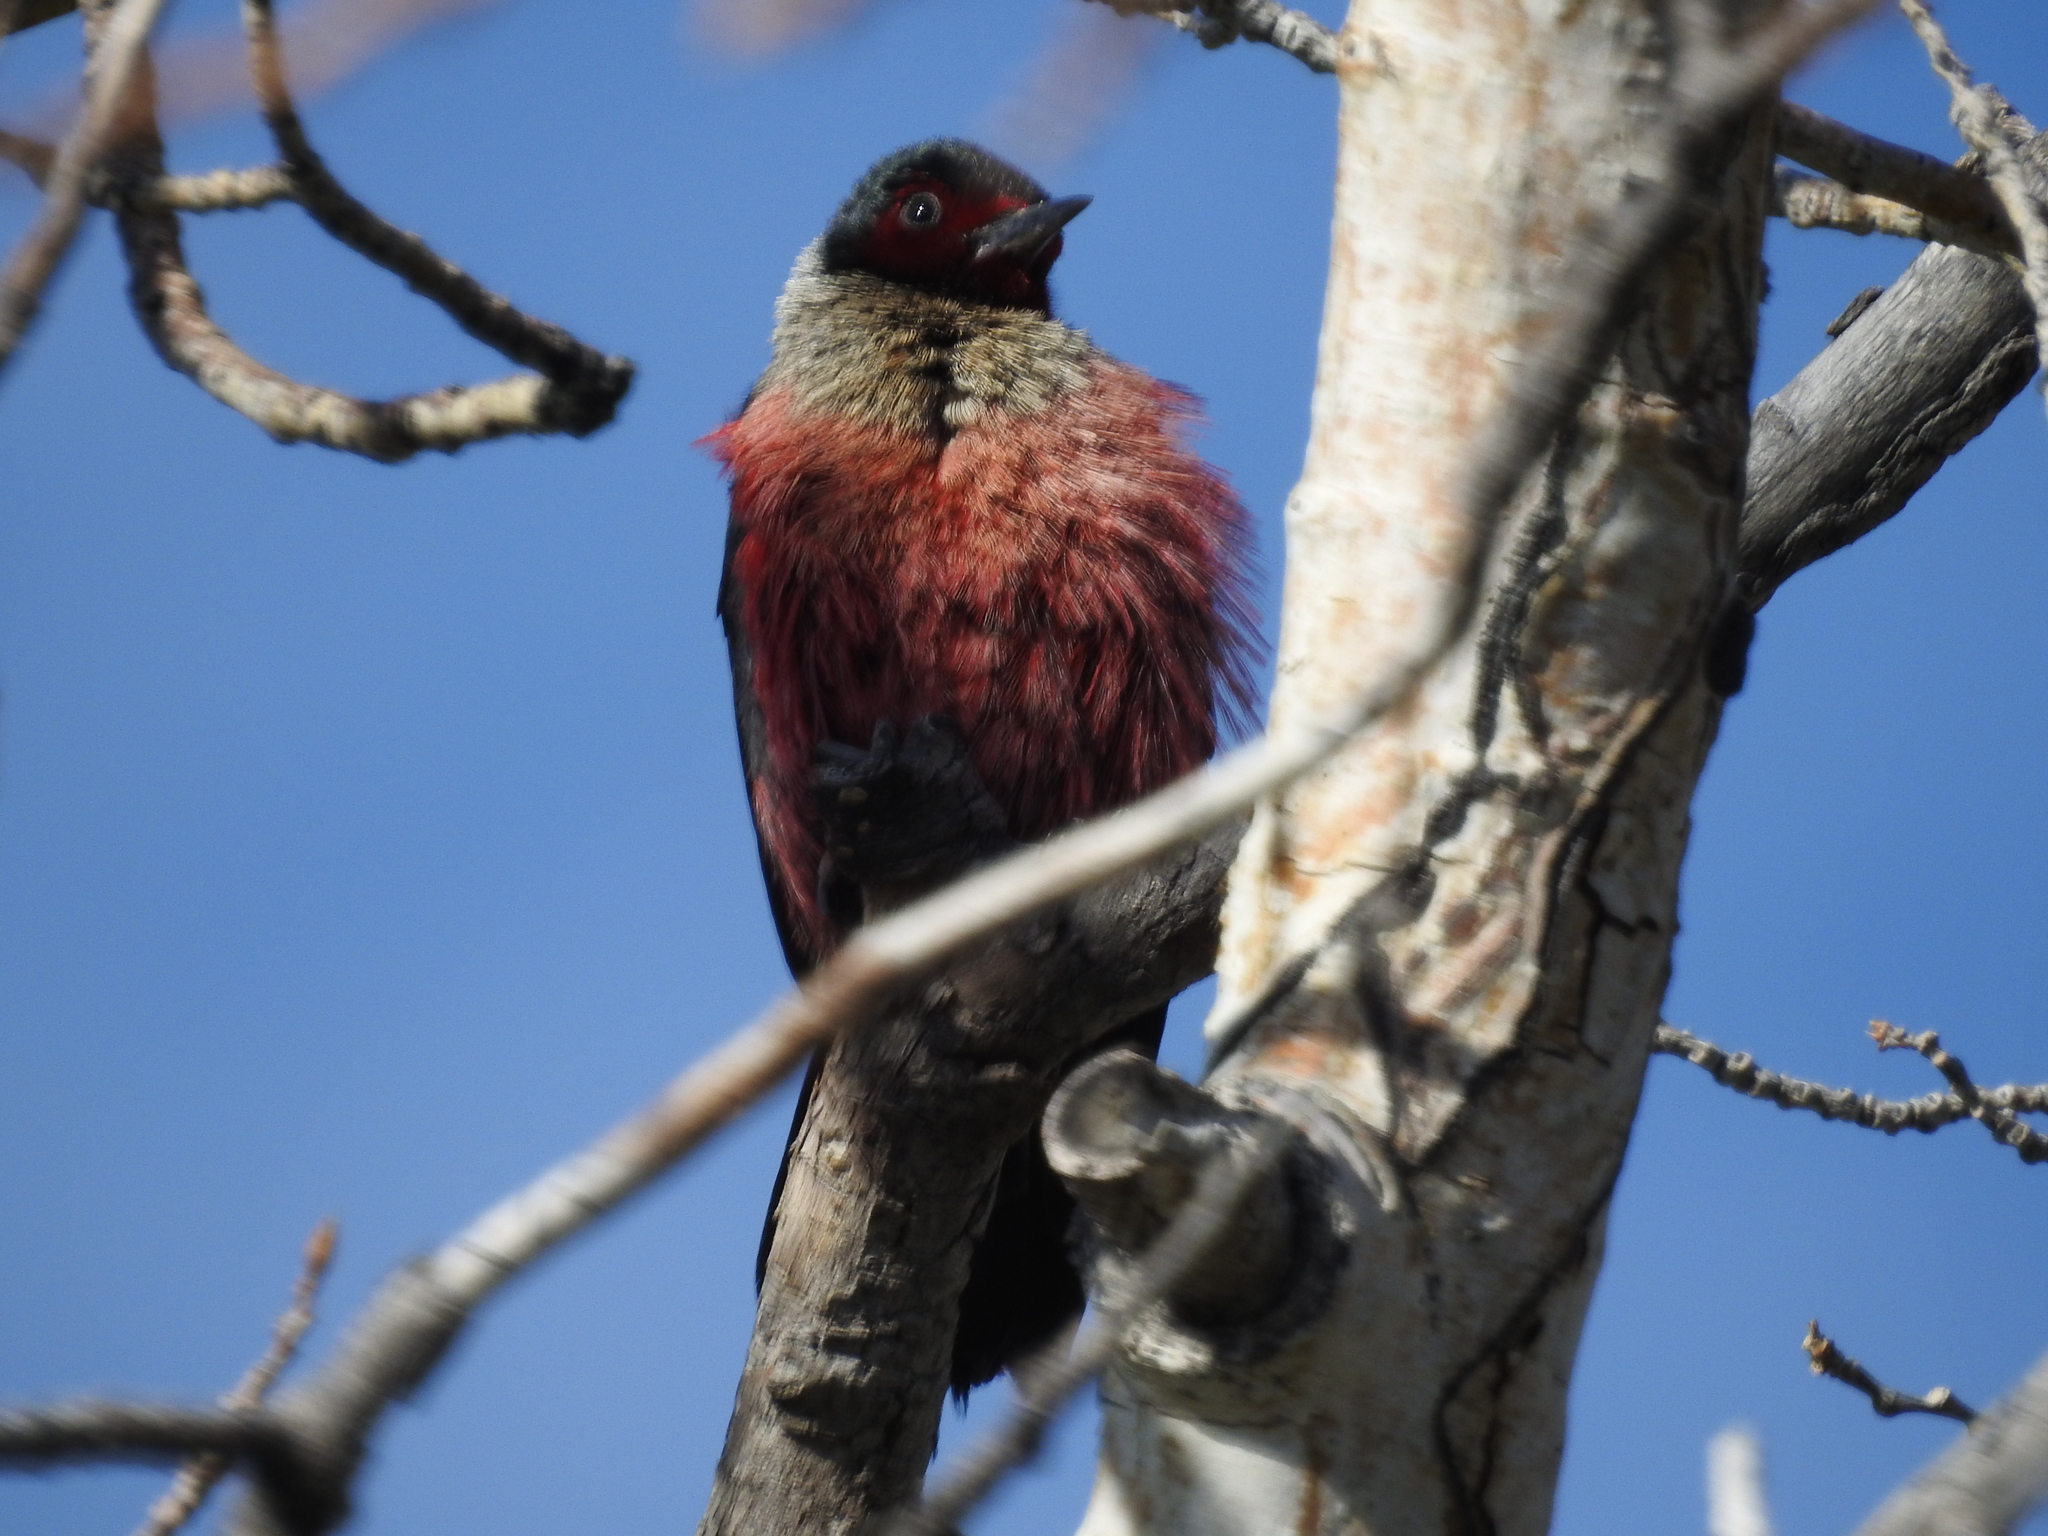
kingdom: Animalia
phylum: Chordata
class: Aves
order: Piciformes
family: Picidae
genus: Melanerpes
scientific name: Melanerpes lewis
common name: Lewis's woodpecker
